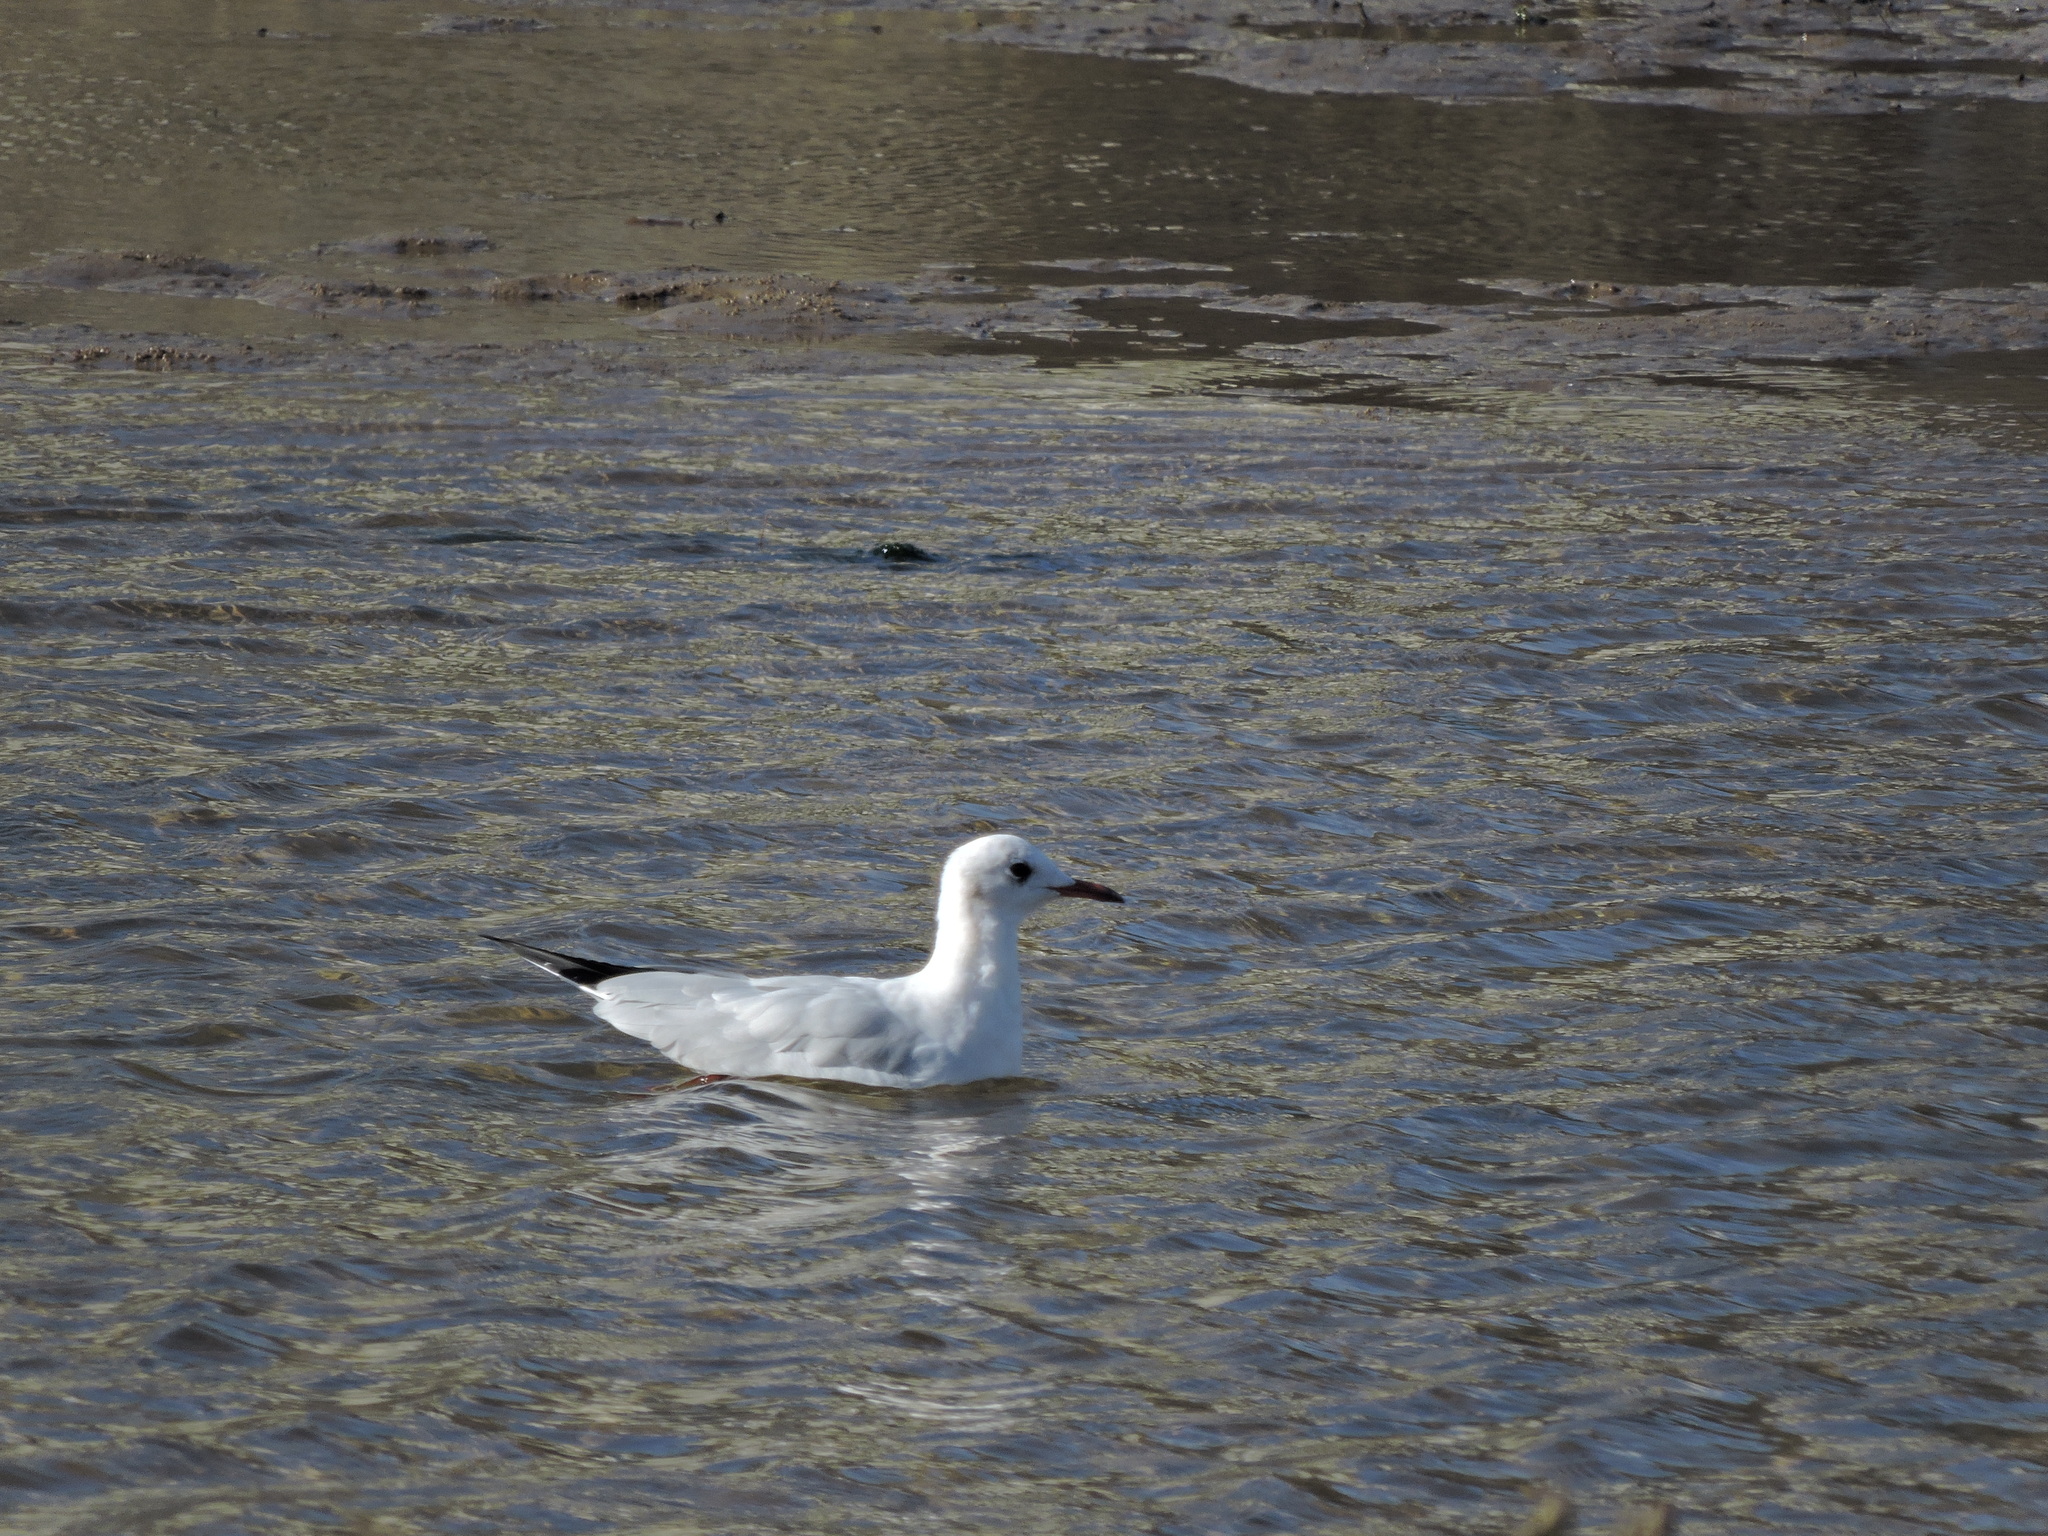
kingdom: Animalia
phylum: Chordata
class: Aves
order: Charadriiformes
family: Laridae
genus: Chroicocephalus
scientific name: Chroicocephalus ridibundus
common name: Black-headed gull
